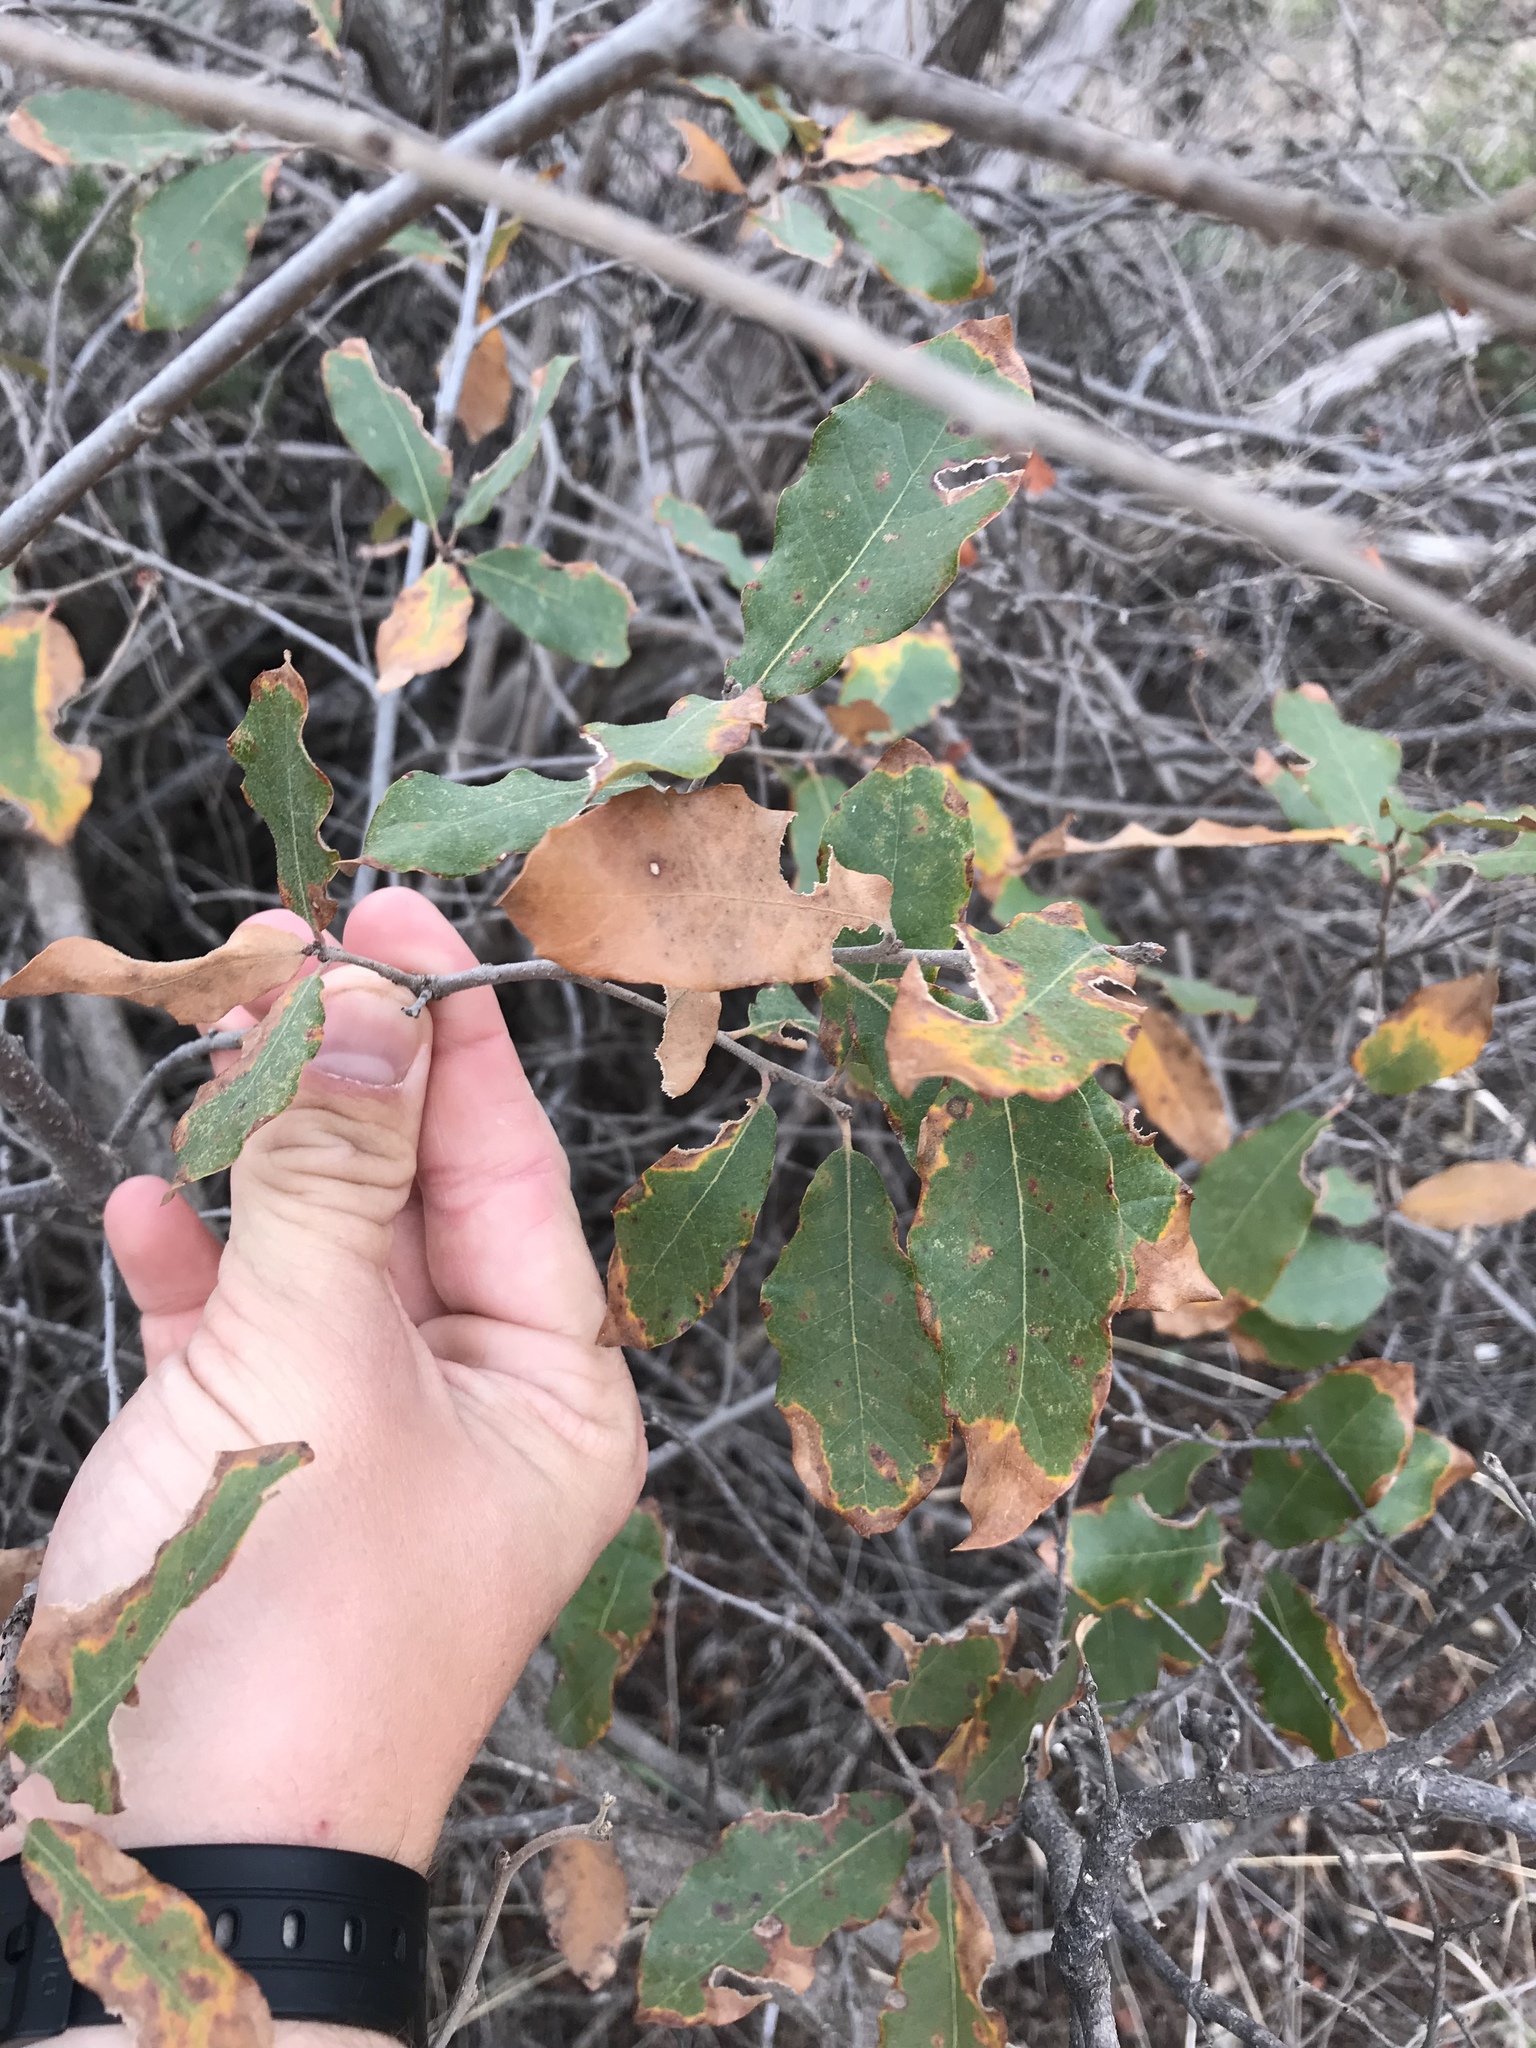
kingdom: Plantae
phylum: Tracheophyta
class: Magnoliopsida
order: Fagales
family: Fagaceae
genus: Quercus
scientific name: Quercus havardii
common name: Shinnery oak
